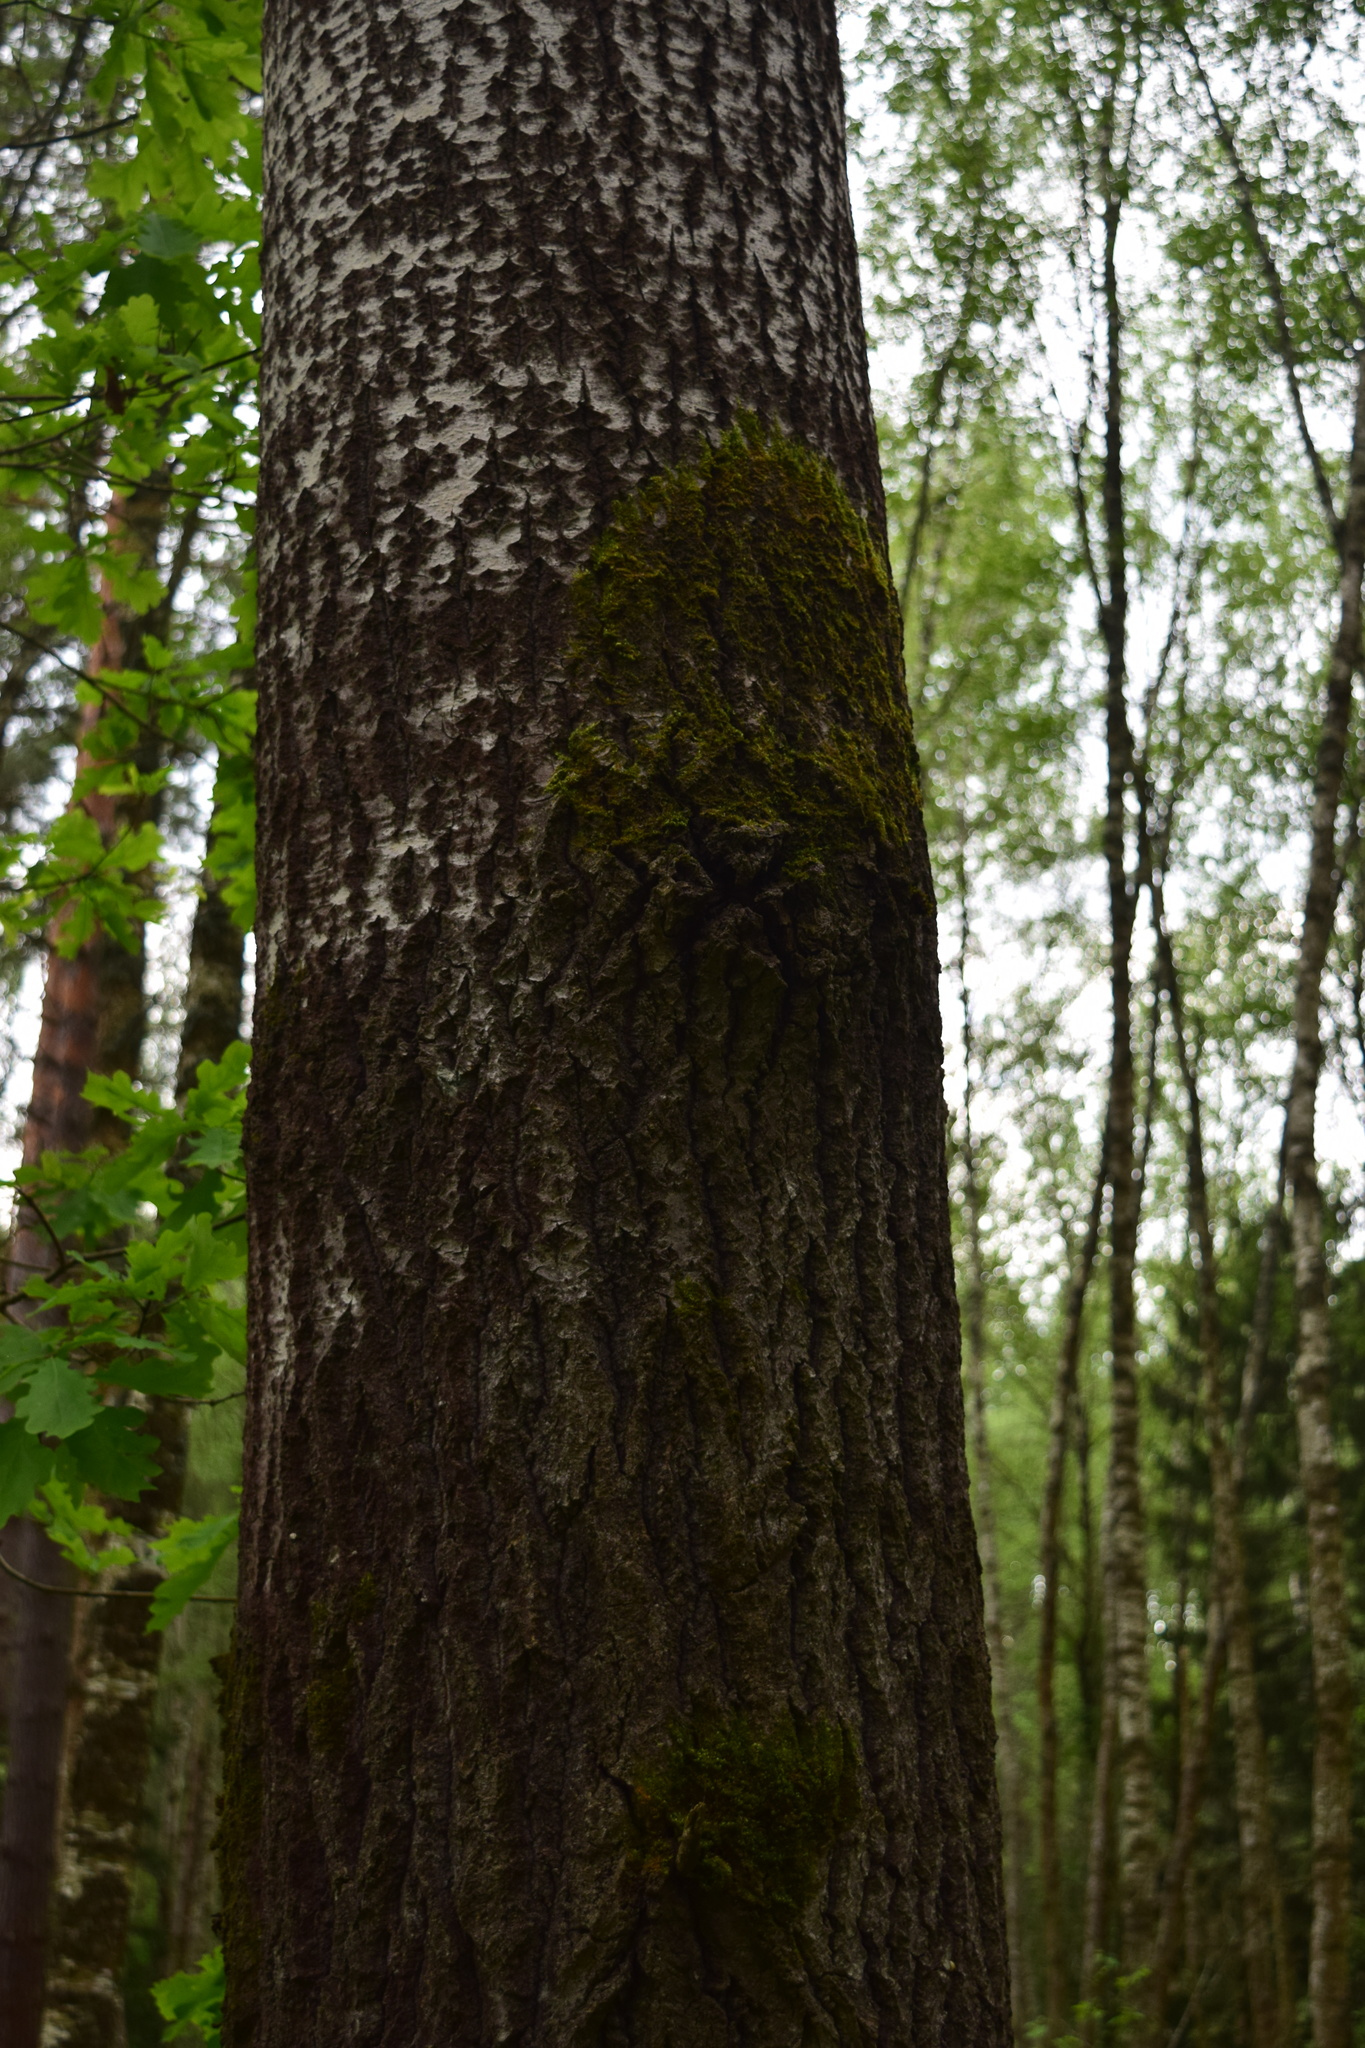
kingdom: Plantae
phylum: Tracheophyta
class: Magnoliopsida
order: Malpighiales
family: Salicaceae
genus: Populus
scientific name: Populus tremula
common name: European aspen
